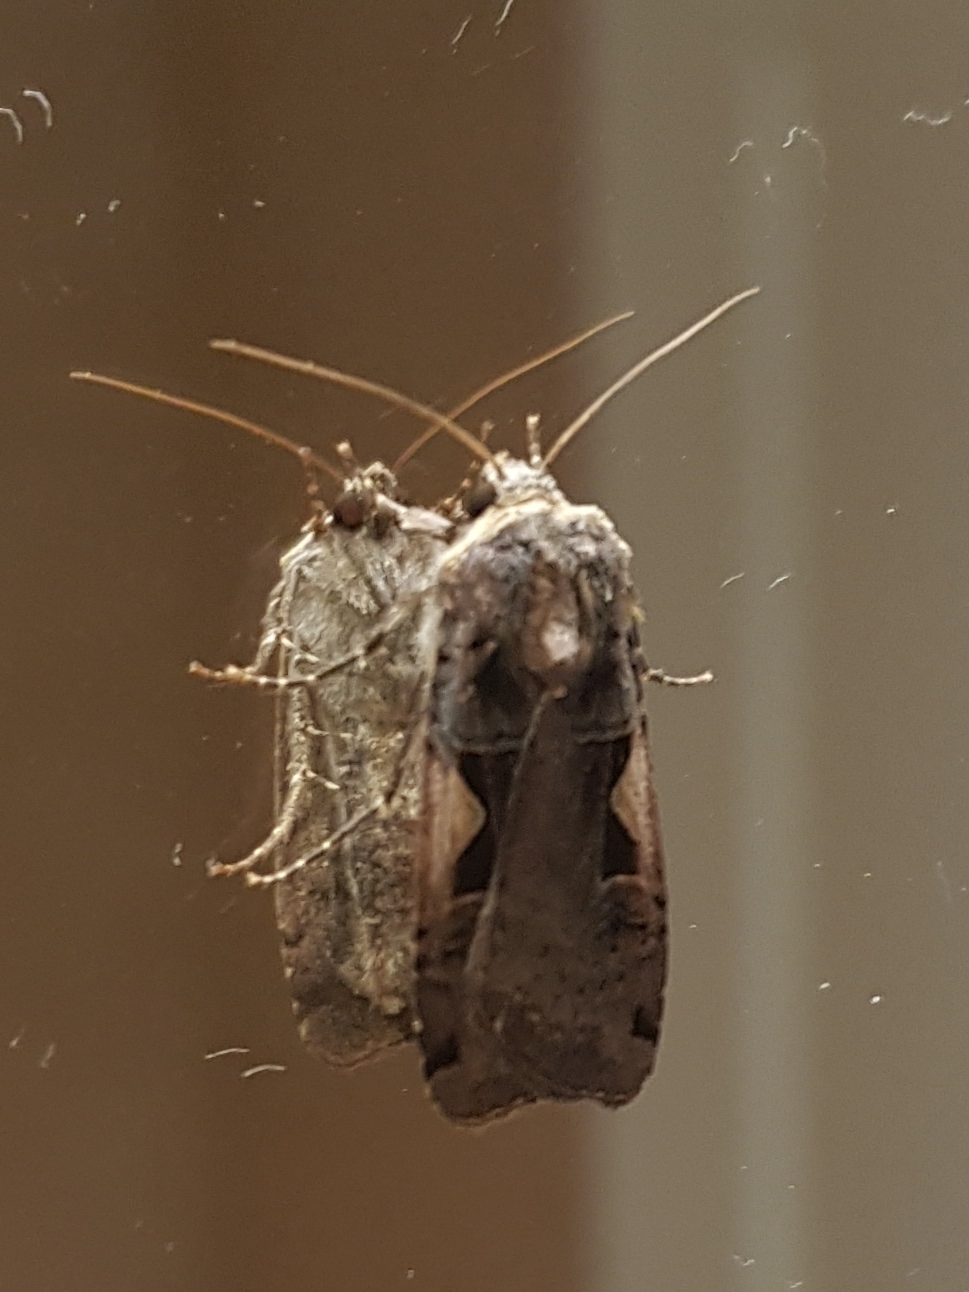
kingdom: Animalia
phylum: Arthropoda
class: Insecta
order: Lepidoptera
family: Noctuidae
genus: Xestia
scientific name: Xestia c-nigrum
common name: Setaceous hebrew character
